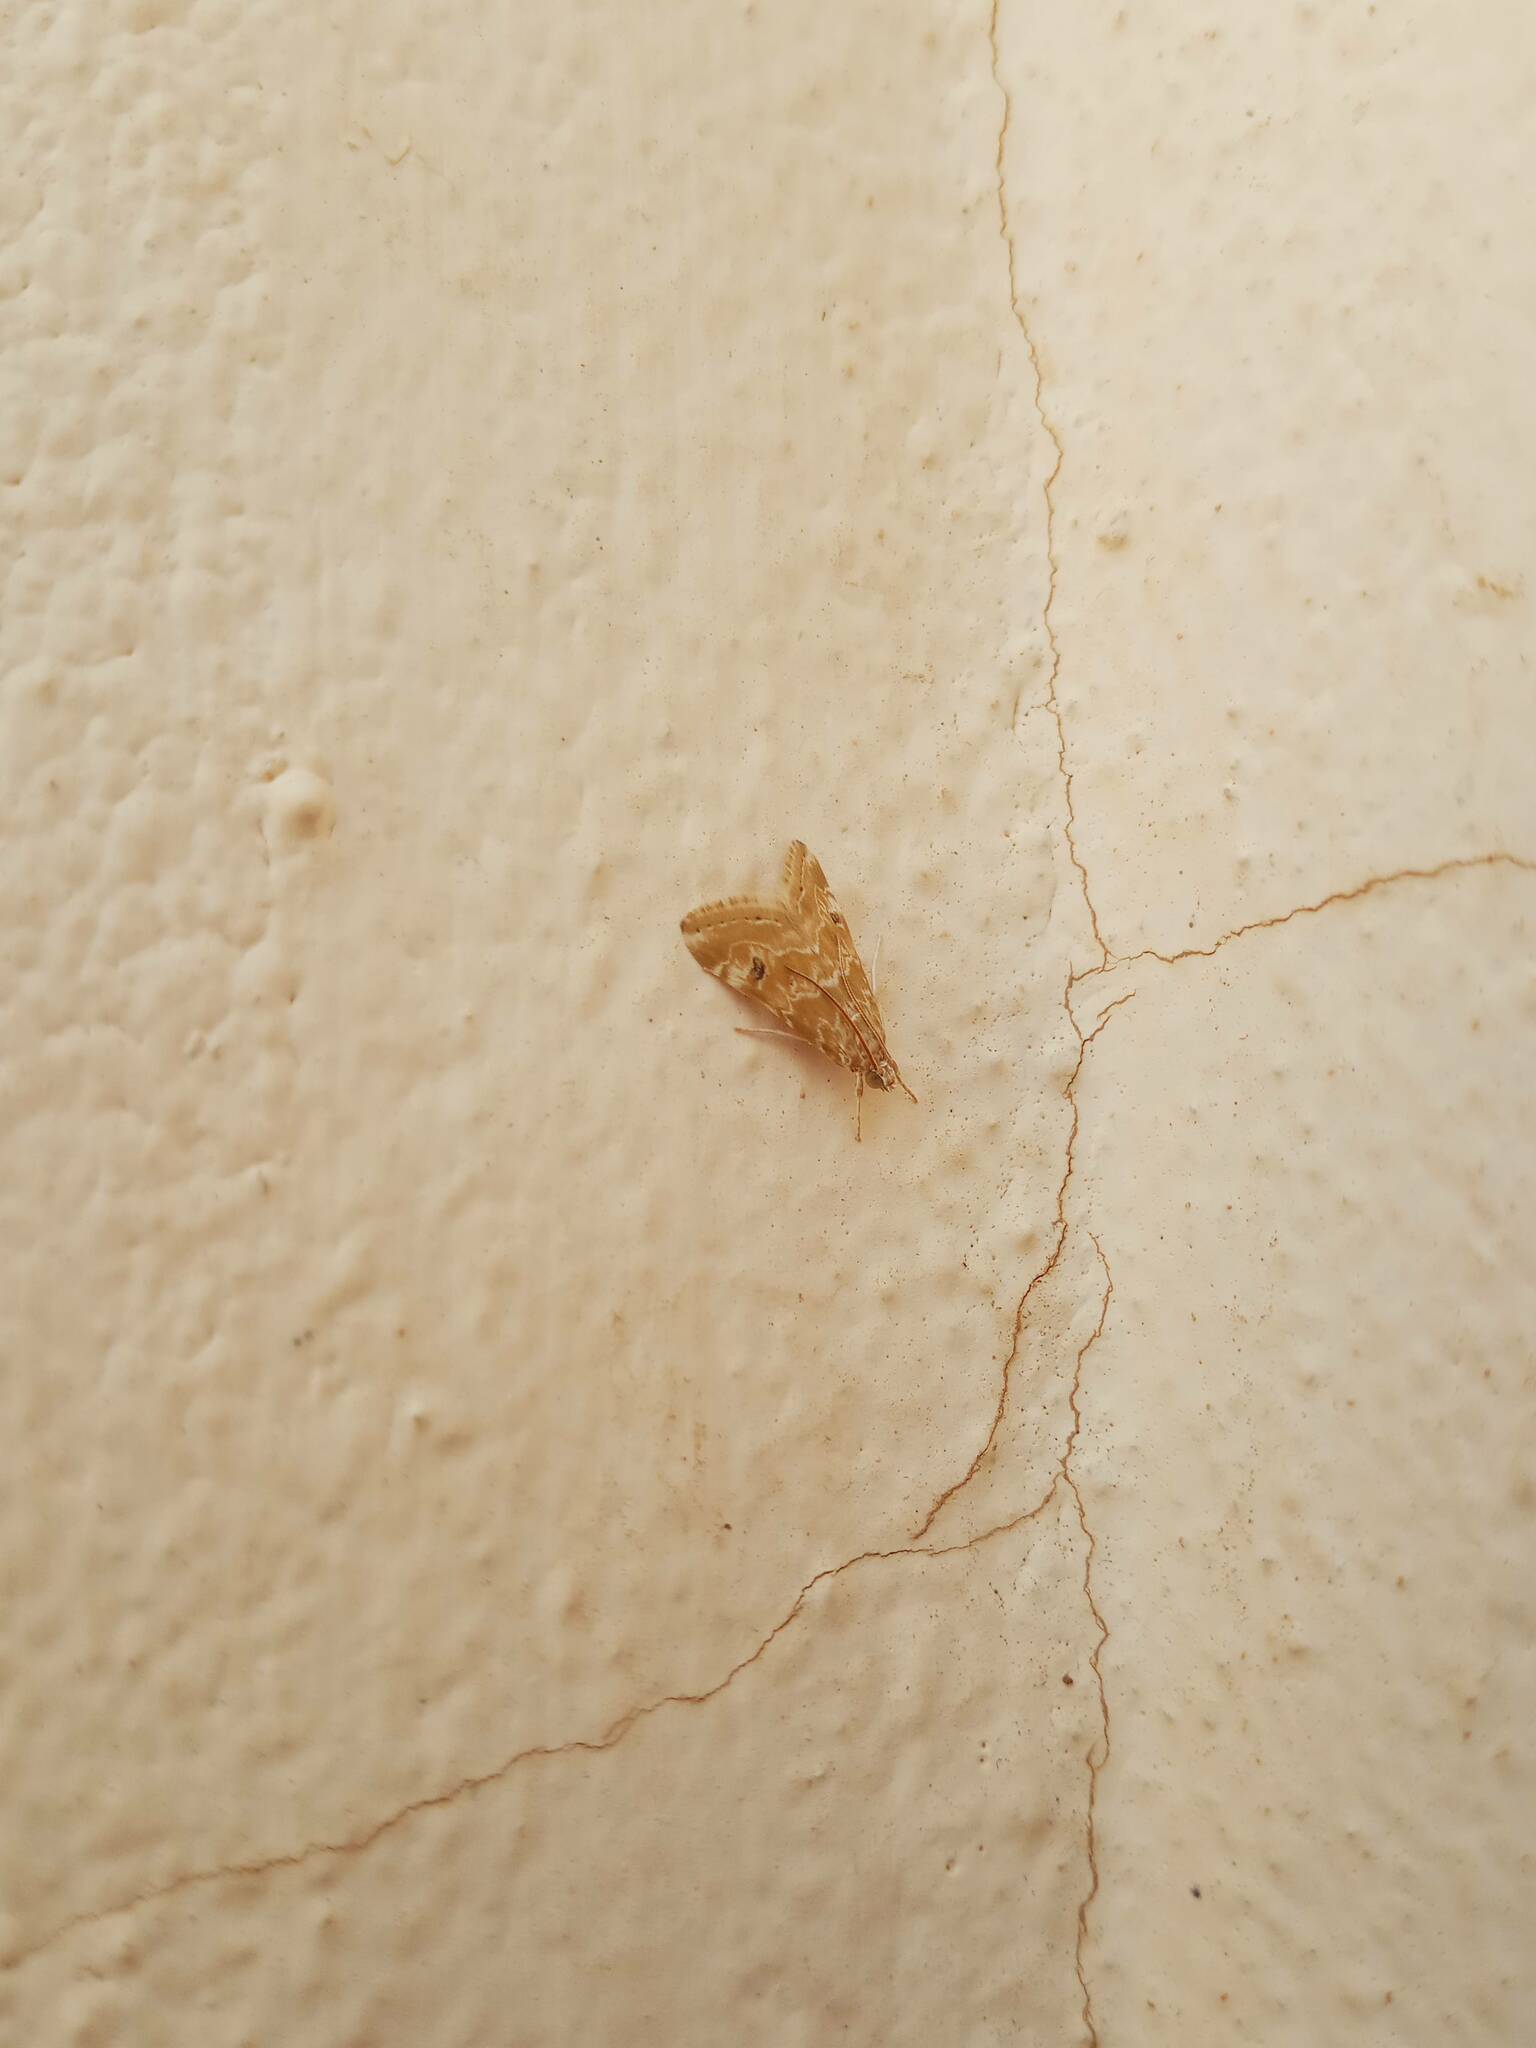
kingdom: Animalia
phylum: Arthropoda
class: Insecta
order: Lepidoptera
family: Crambidae
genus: Hellula
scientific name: Hellula undalis
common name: Cabbage webworm
